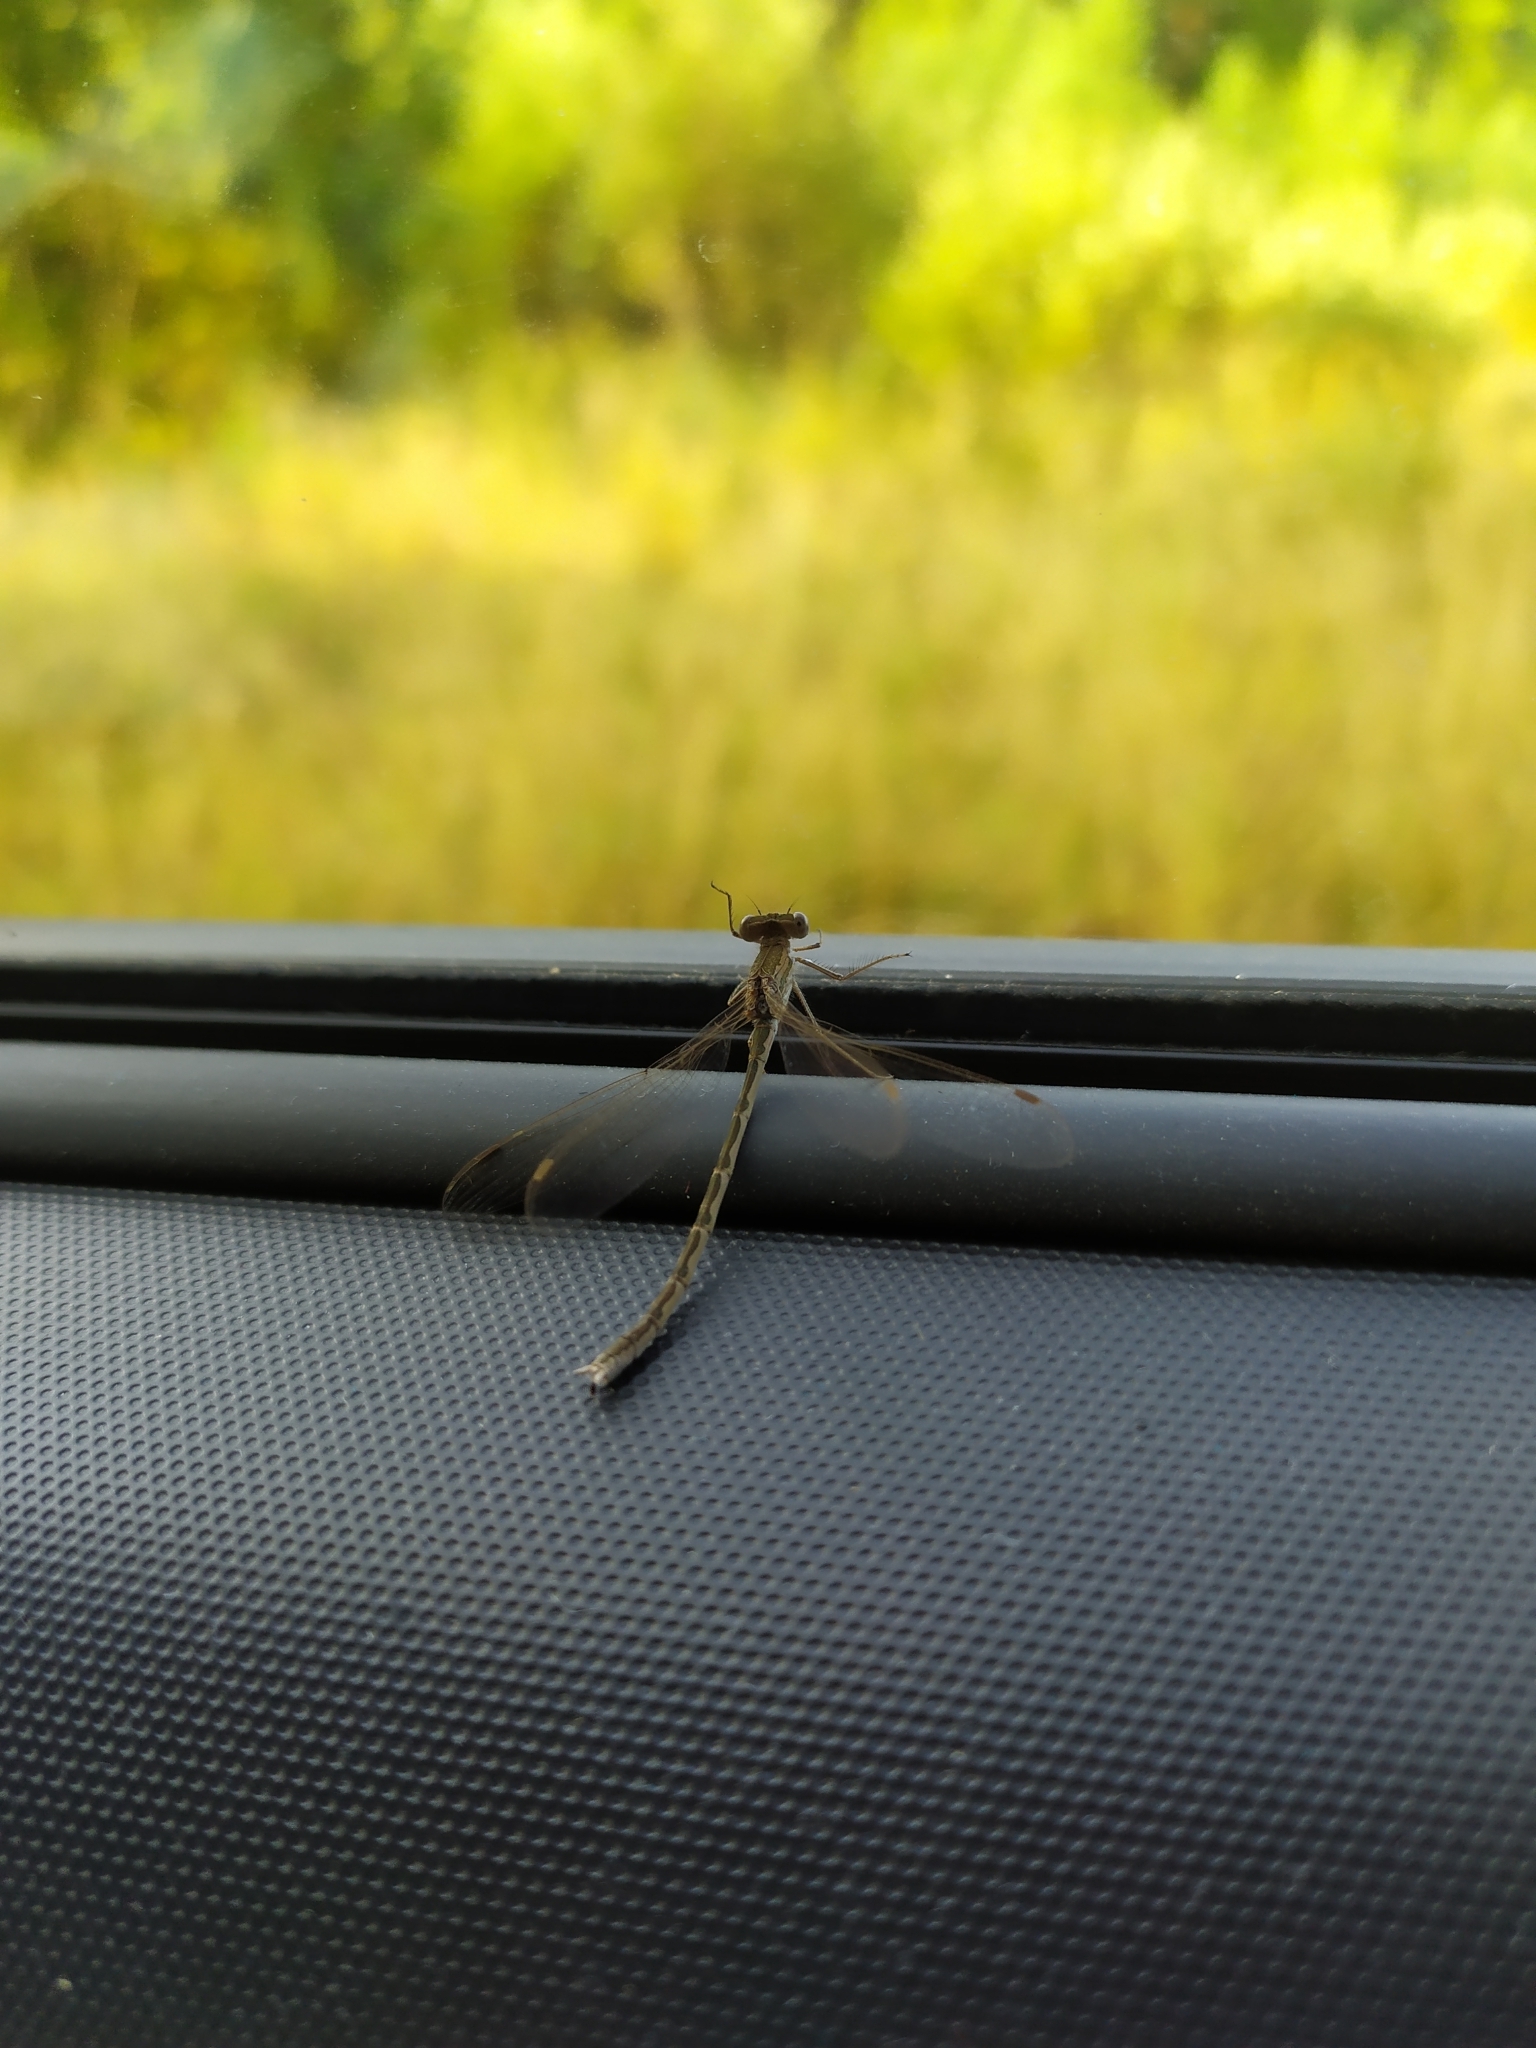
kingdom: Animalia
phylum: Arthropoda
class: Insecta
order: Odonata
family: Lestidae
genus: Sympecma
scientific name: Sympecma paedisca
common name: Siberian winter damsel
